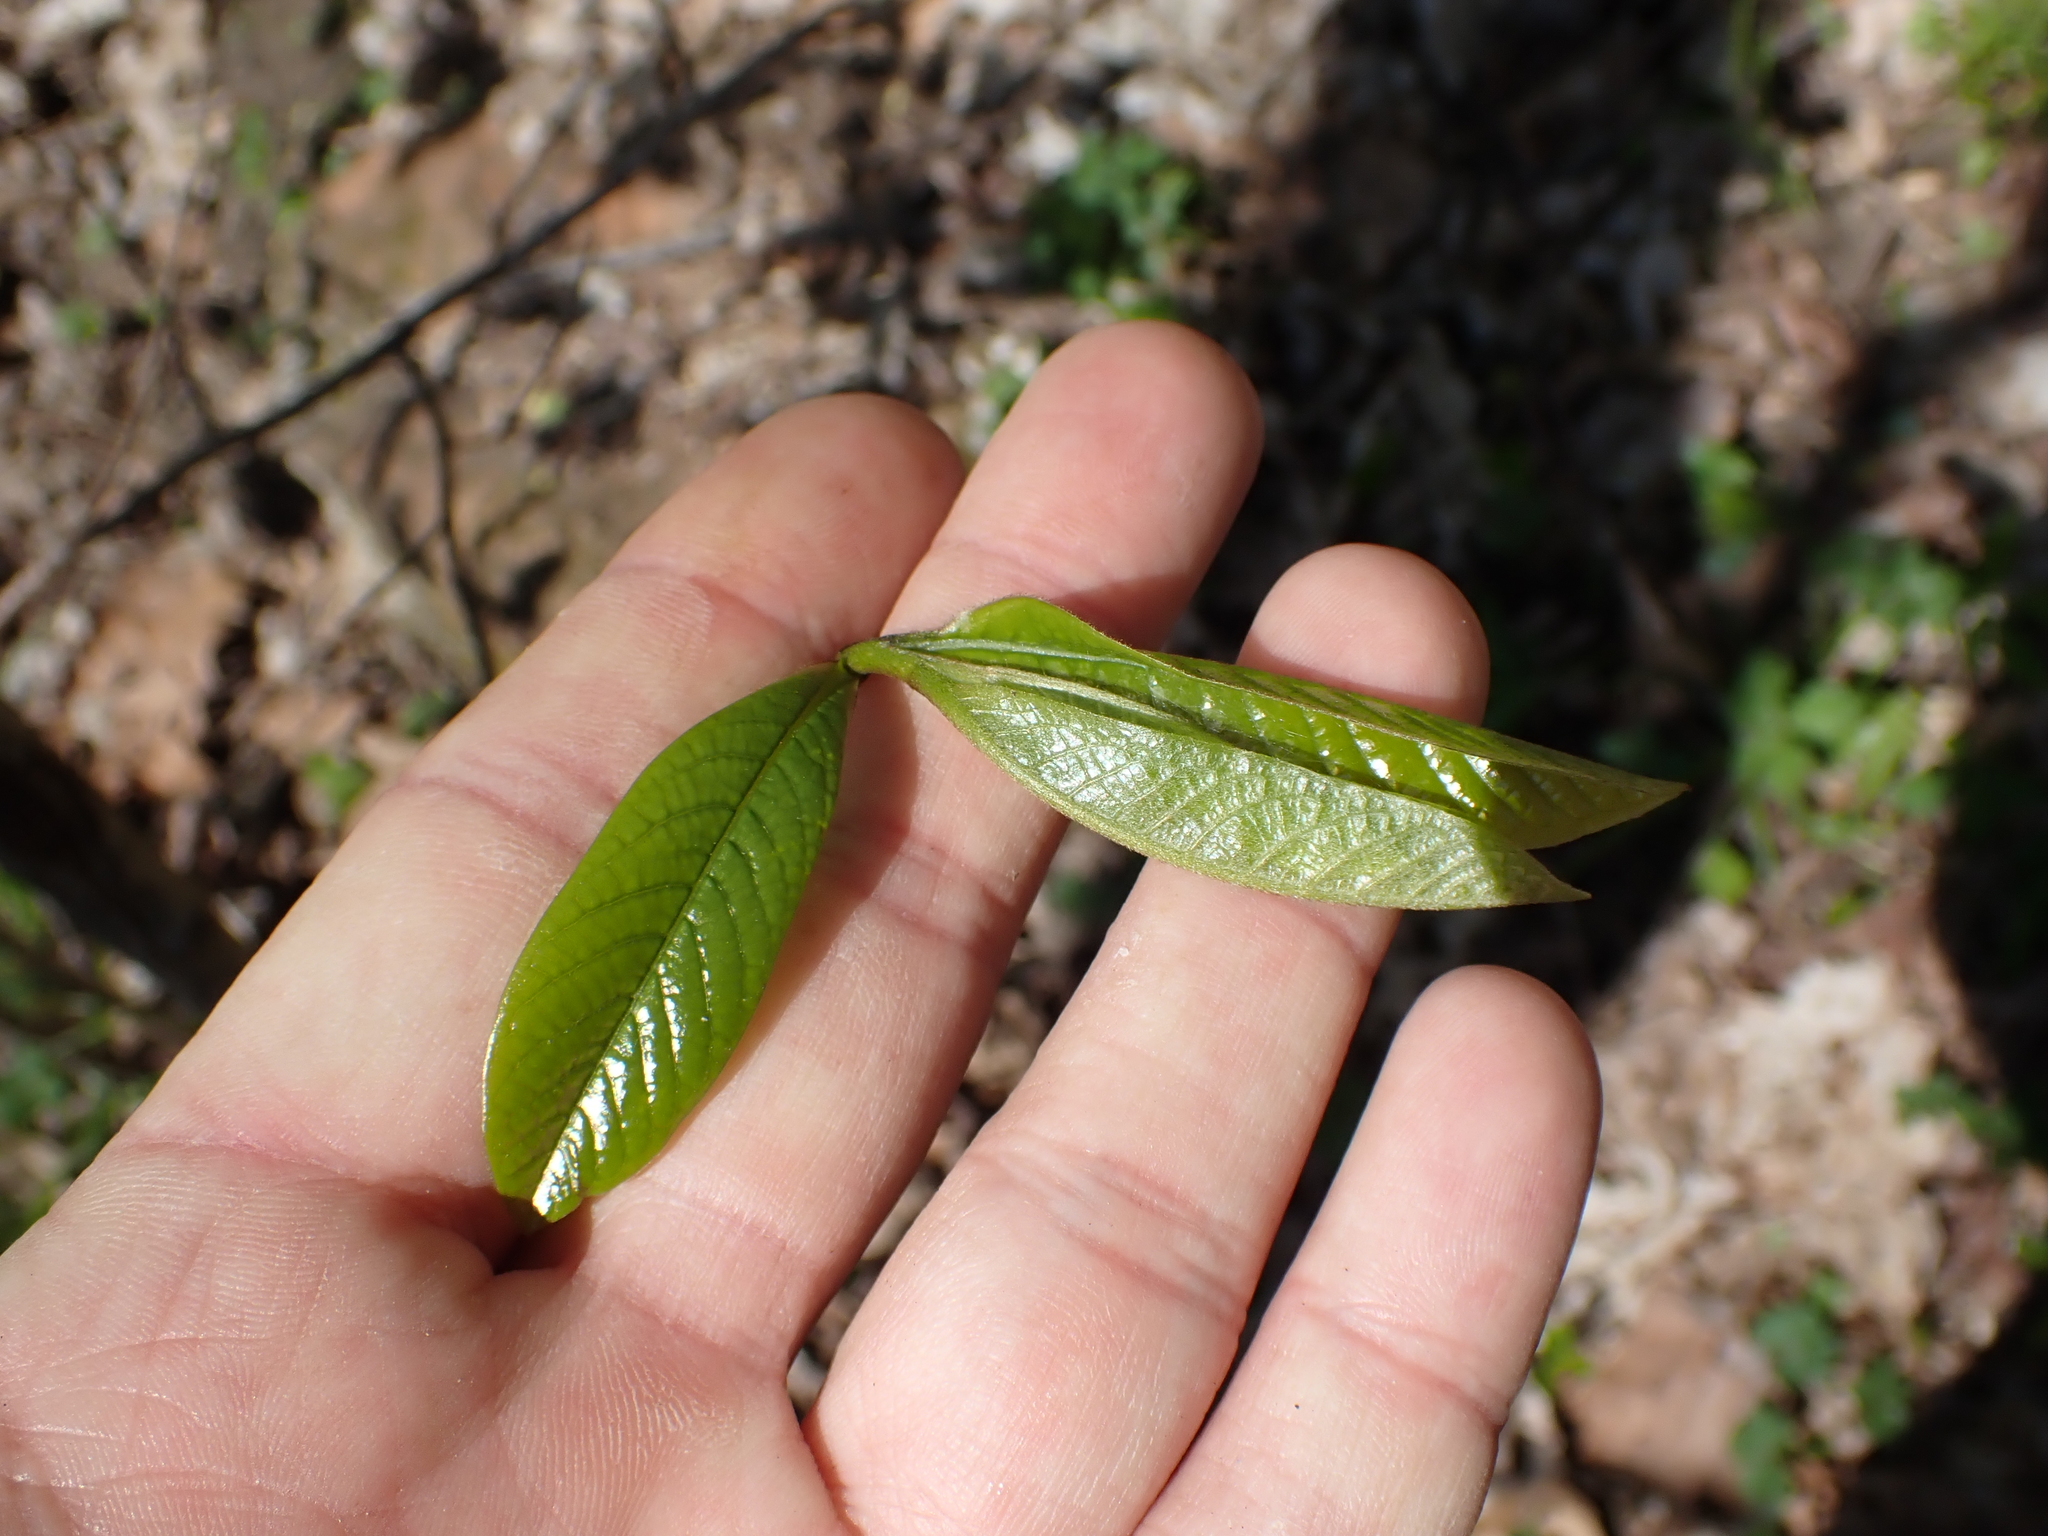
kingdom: Plantae
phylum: Tracheophyta
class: Magnoliopsida
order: Magnoliales
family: Annonaceae
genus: Asimina
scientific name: Asimina triloba
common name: Dog-banana
